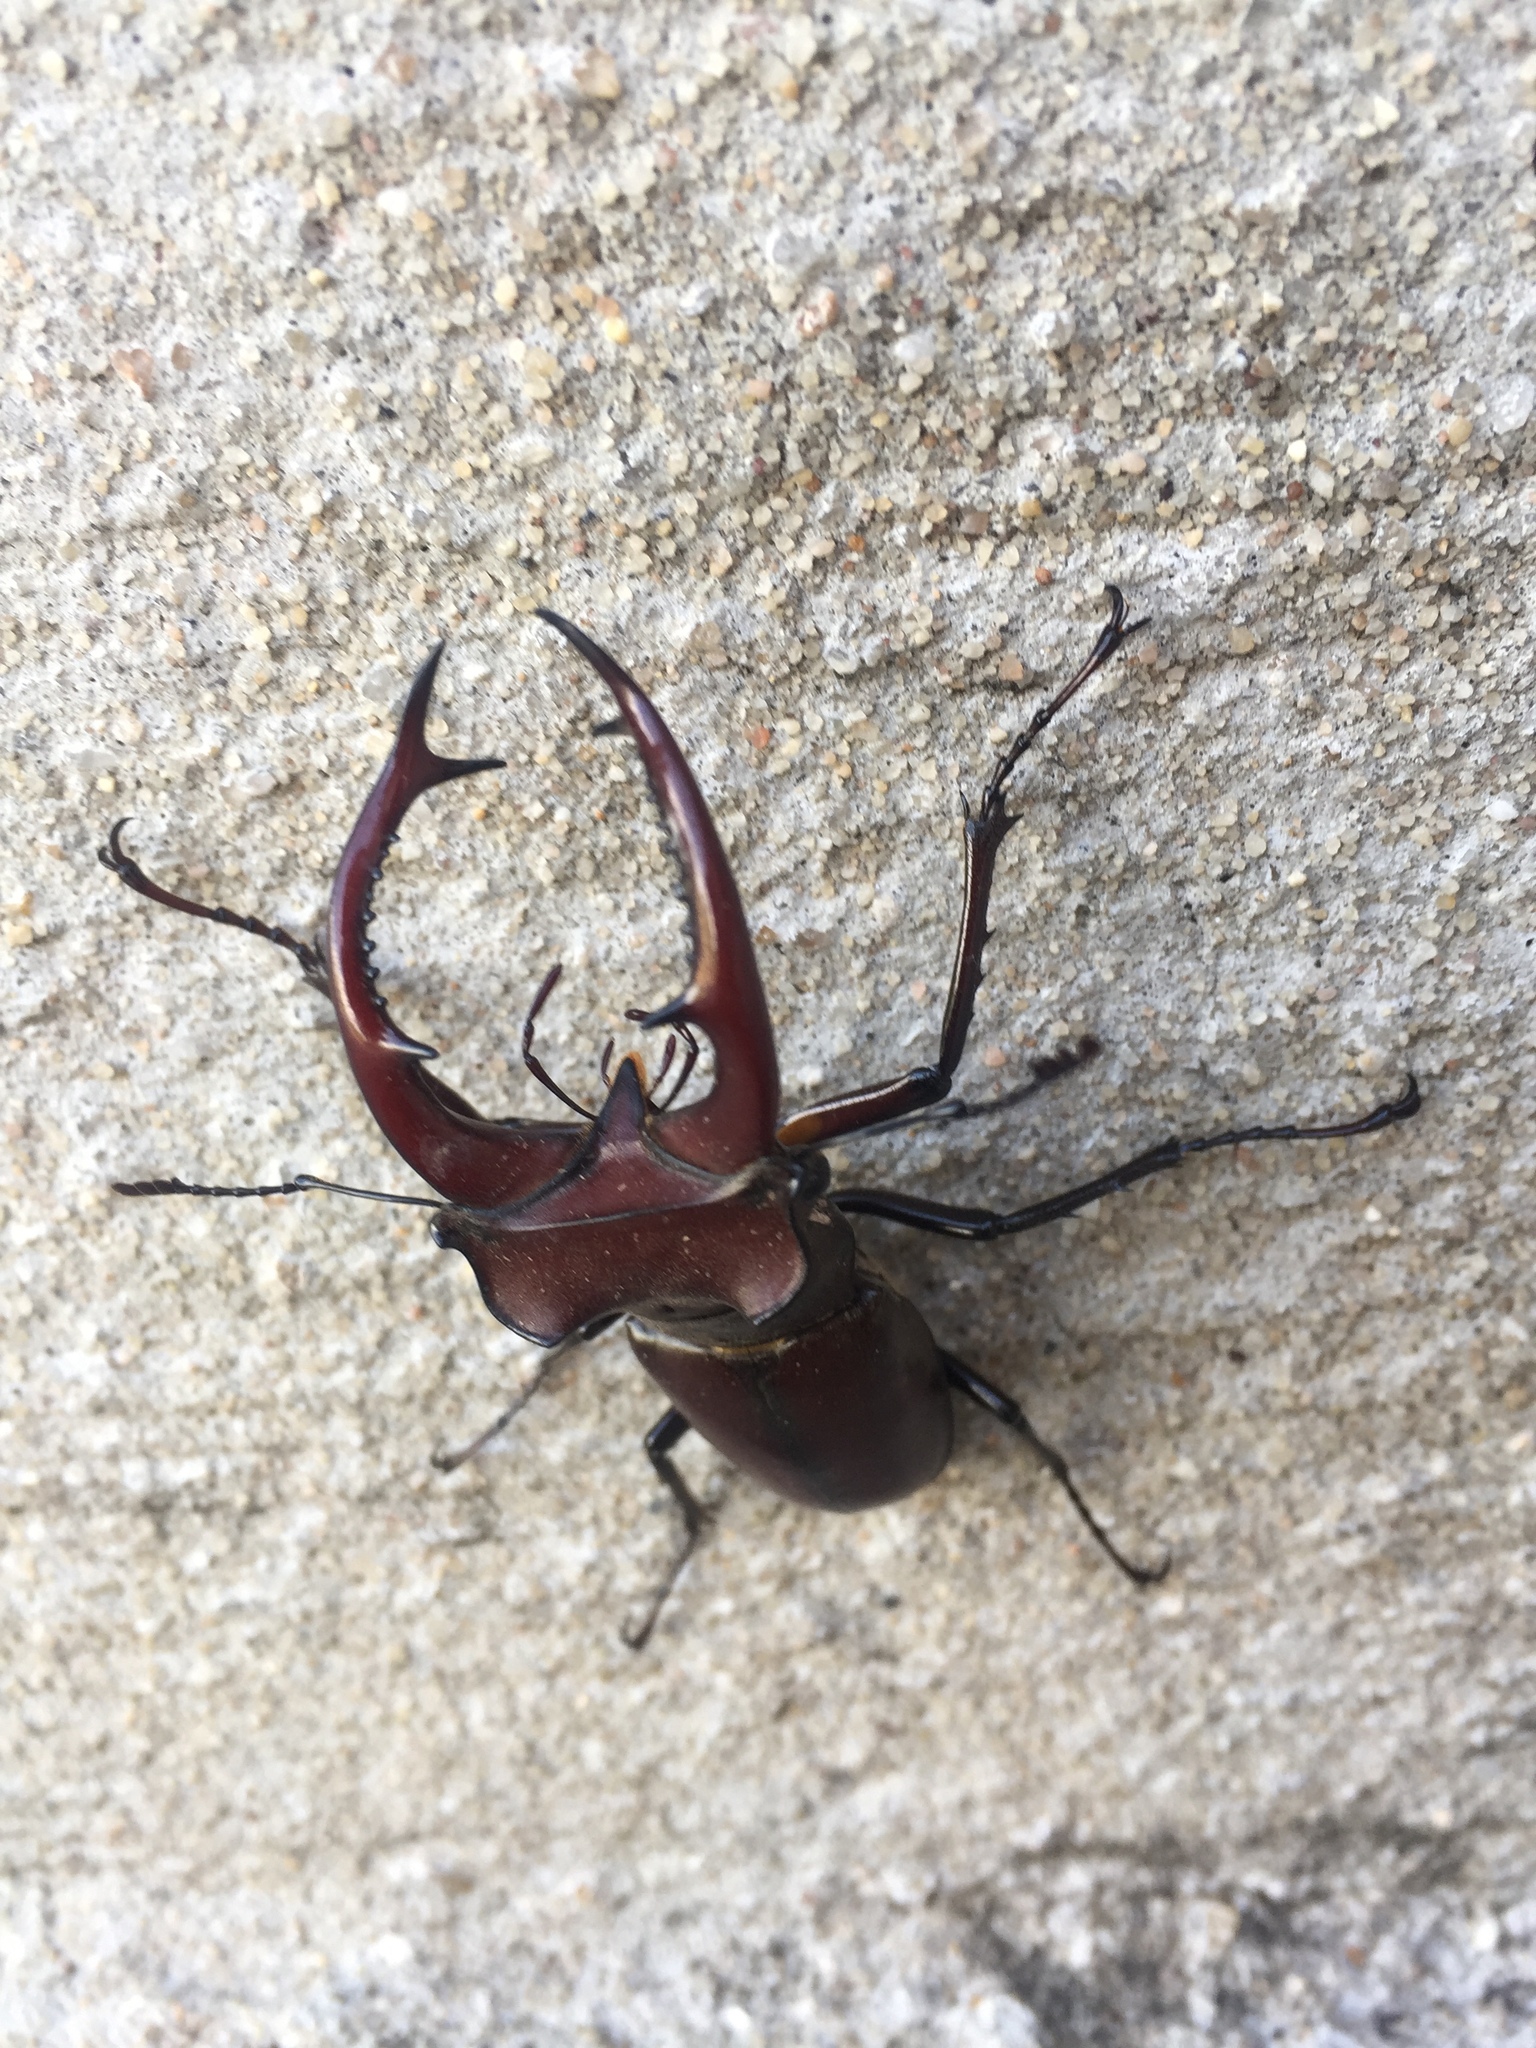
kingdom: Animalia
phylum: Arthropoda
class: Insecta
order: Coleoptera
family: Lucanidae
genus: Lucanus
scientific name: Lucanus elaphus
